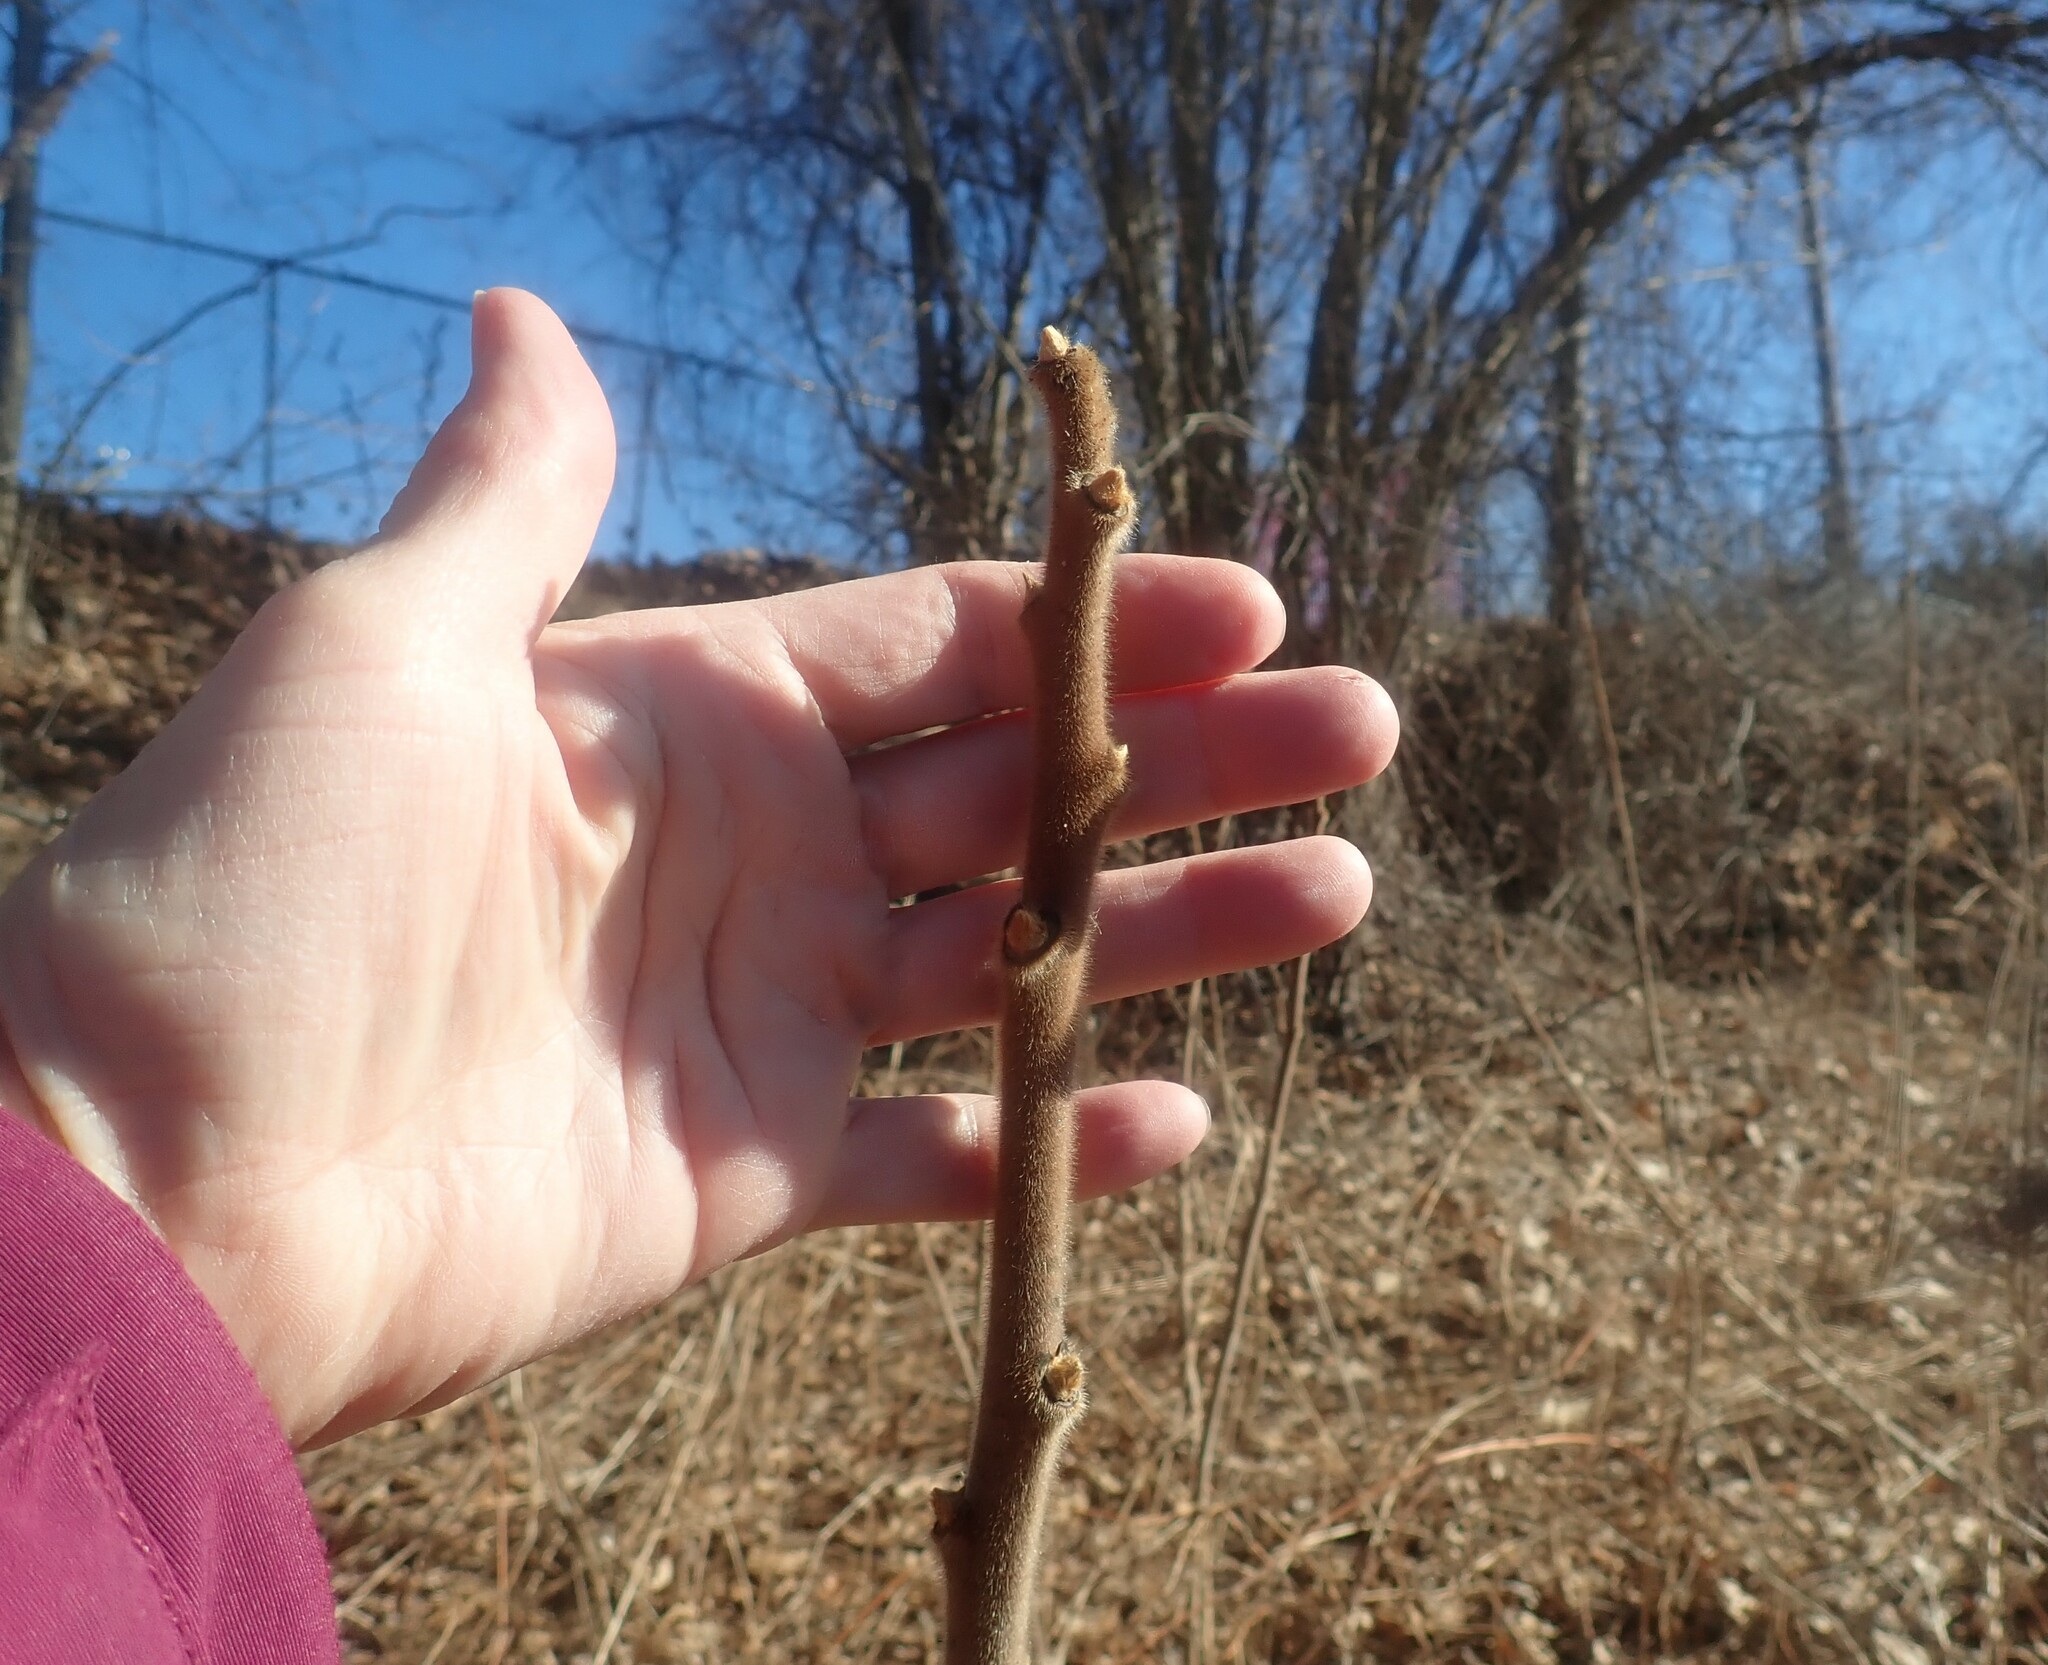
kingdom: Plantae
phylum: Tracheophyta
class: Magnoliopsida
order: Sapindales
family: Anacardiaceae
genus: Rhus
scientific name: Rhus typhina
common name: Staghorn sumac
